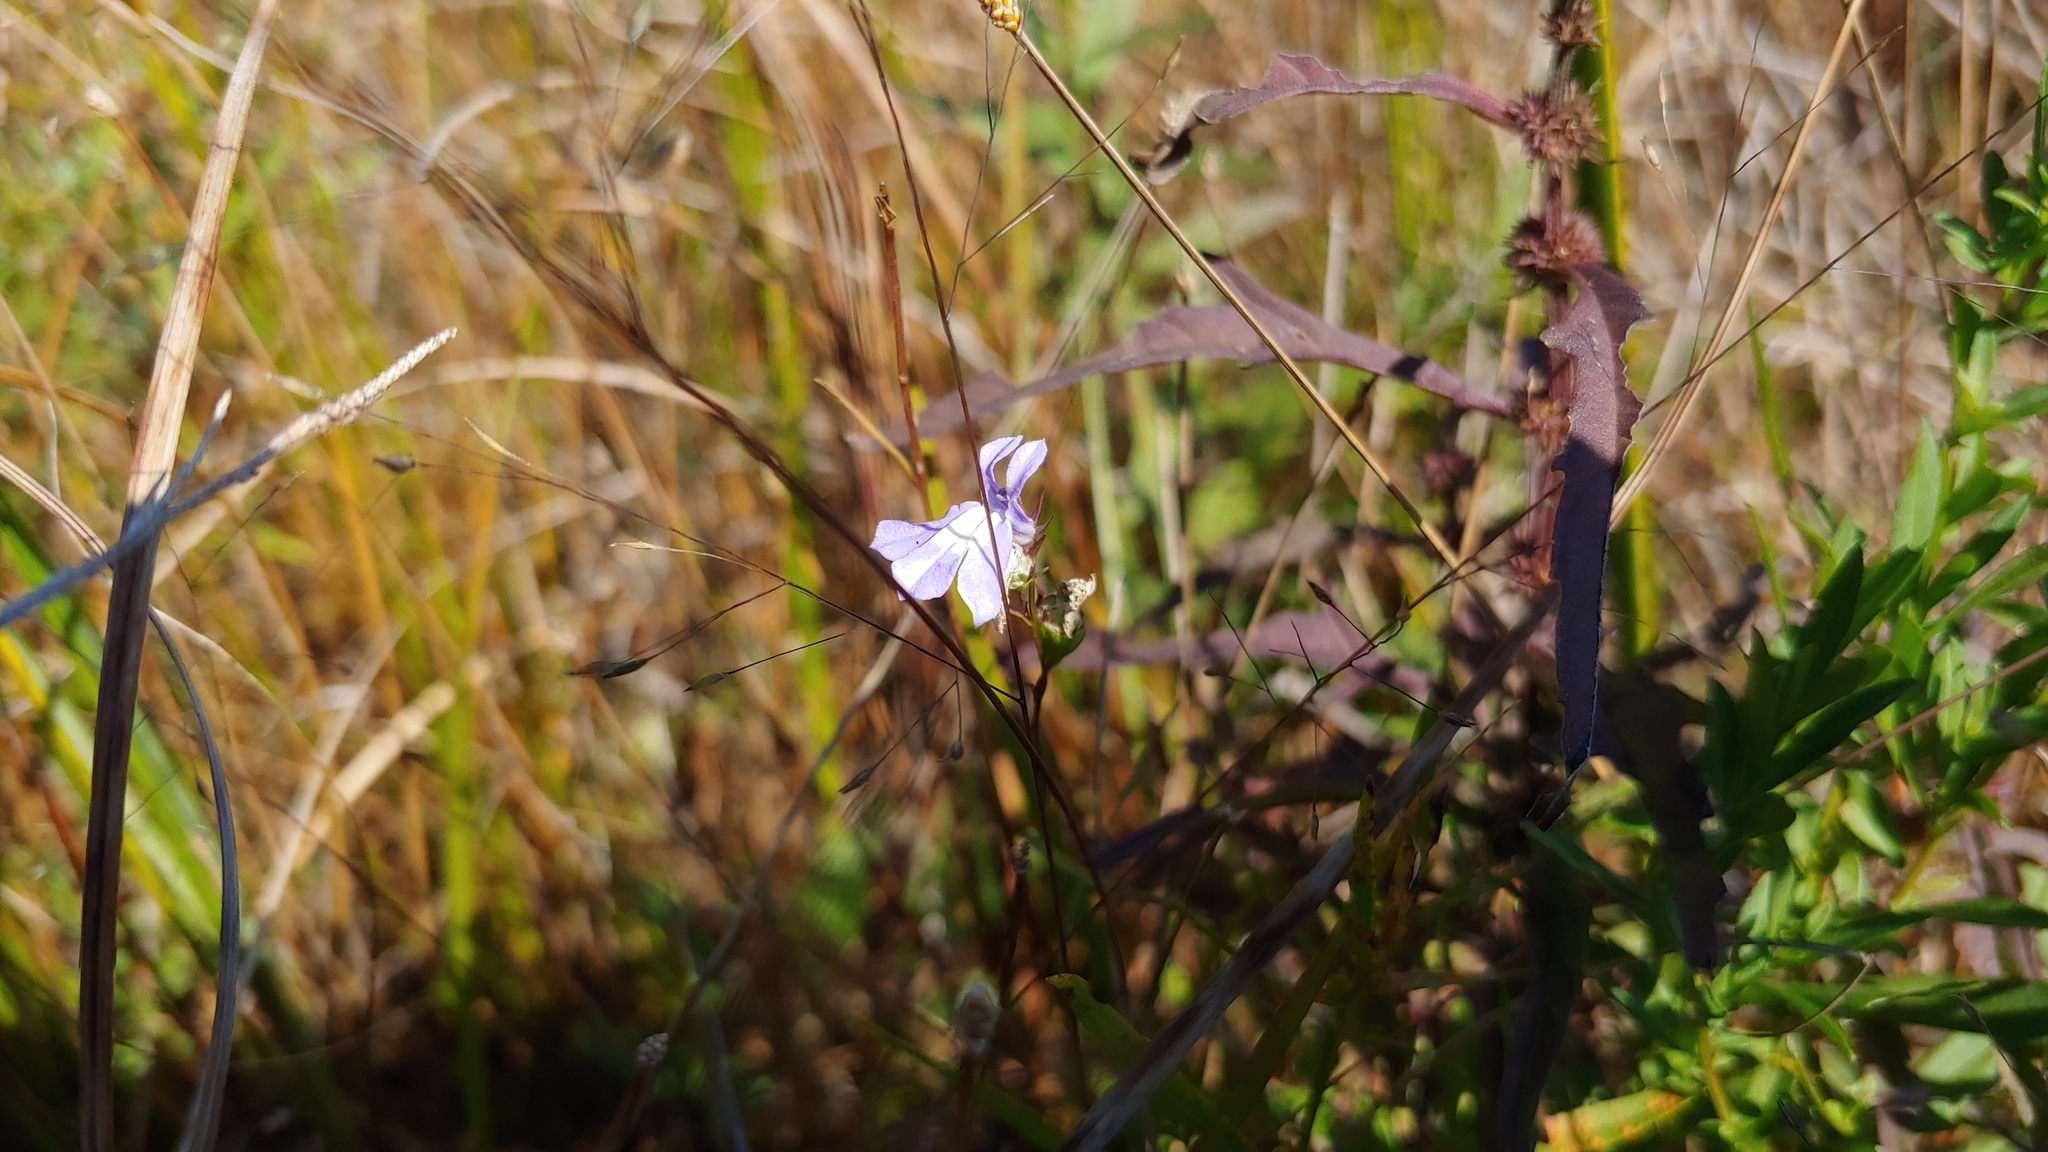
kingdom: Plantae
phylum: Tracheophyta
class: Magnoliopsida
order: Asterales
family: Campanulaceae
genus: Lobelia
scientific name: Lobelia kalmii
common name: Kalm's lobelia
